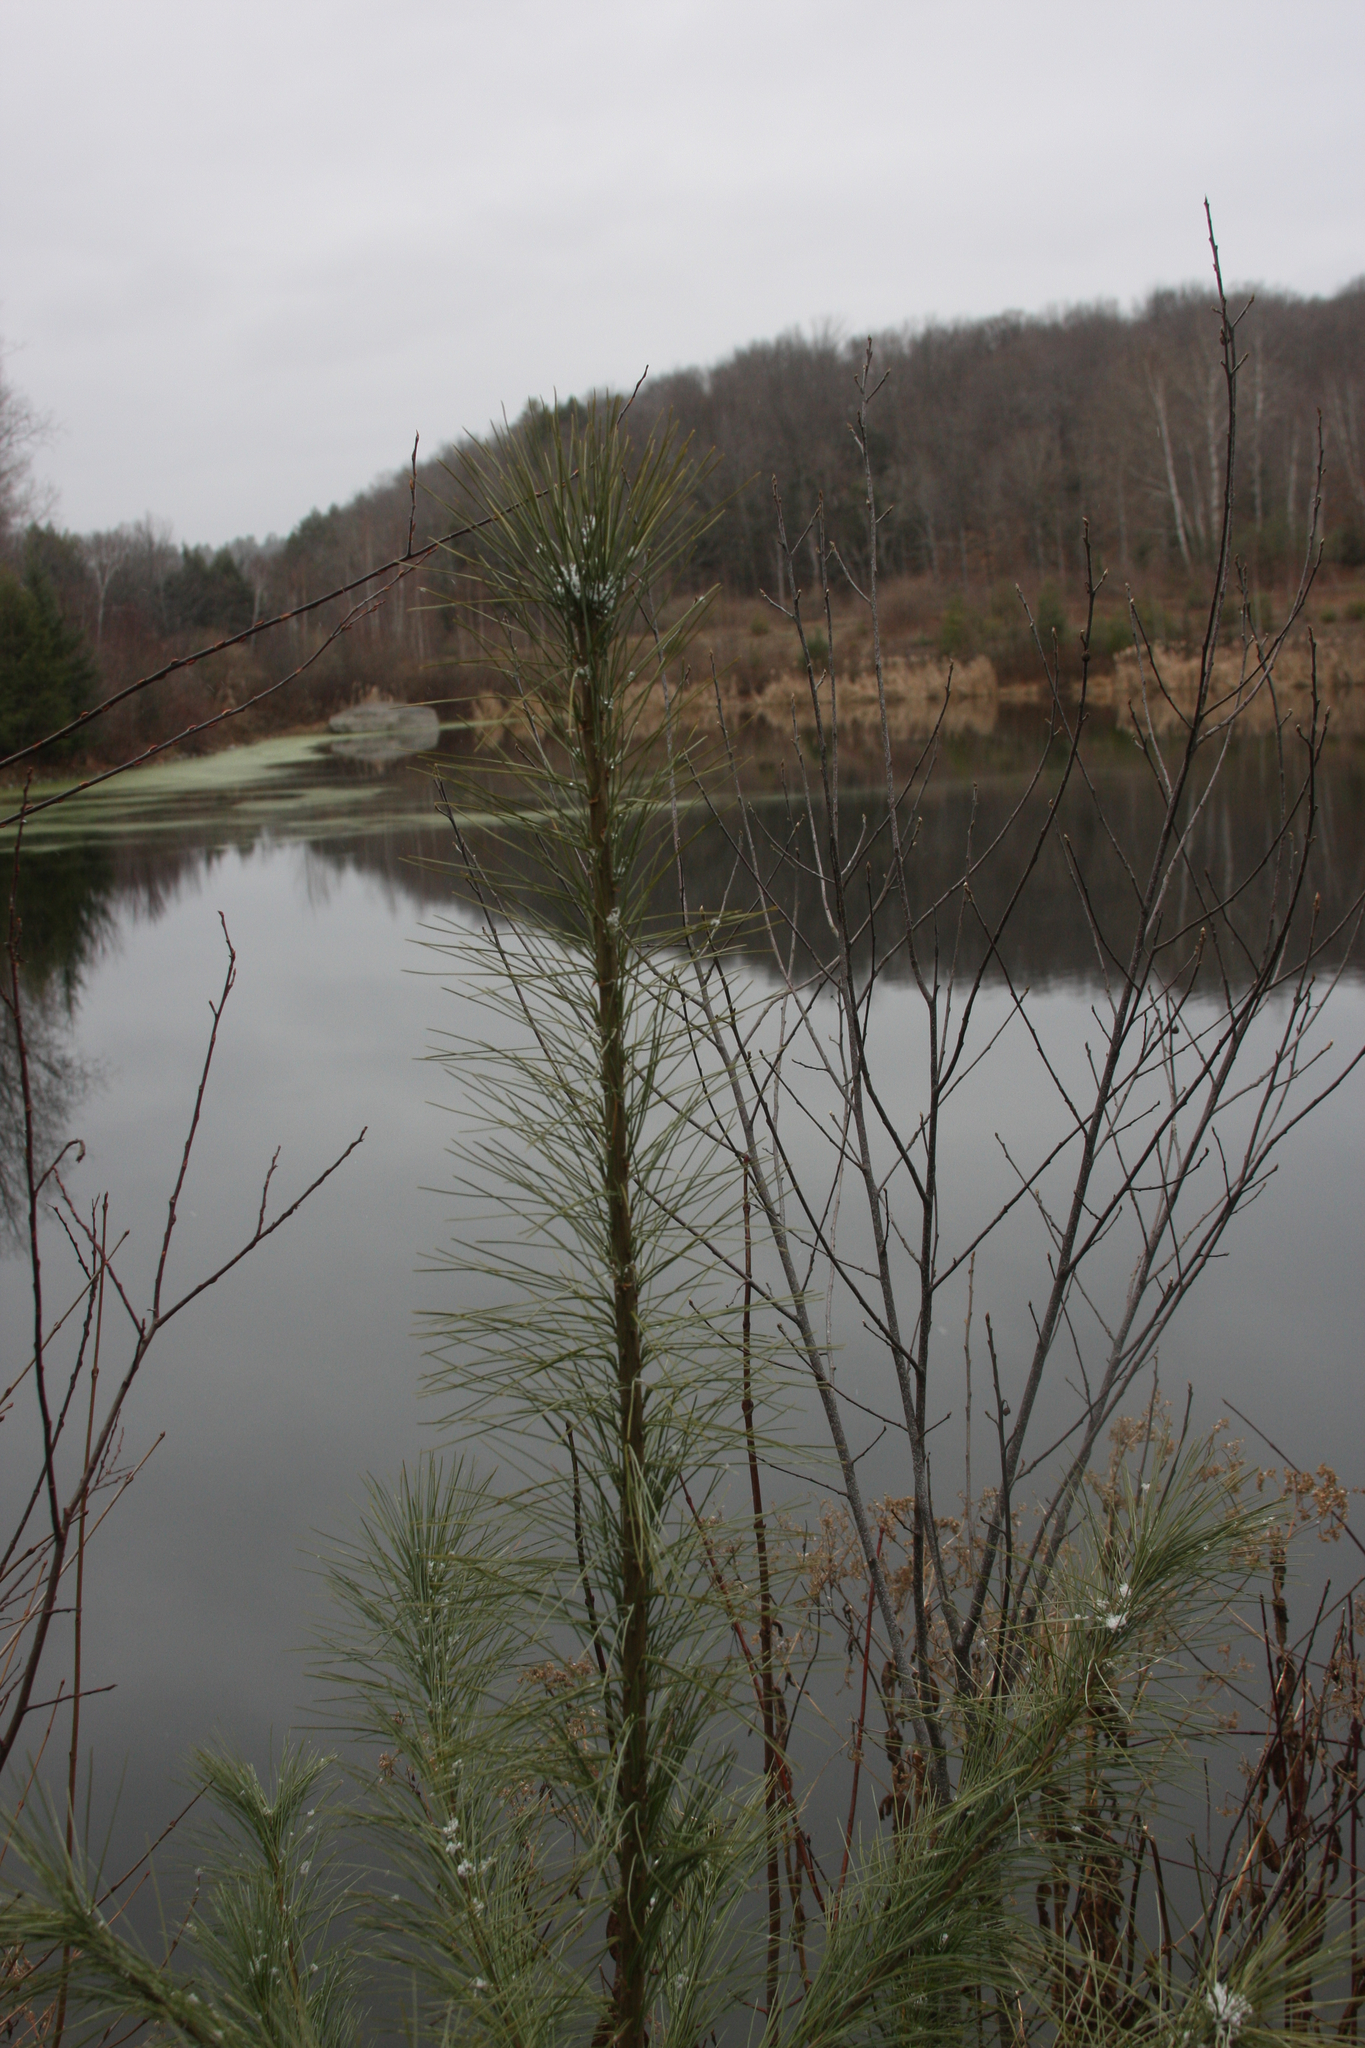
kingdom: Plantae
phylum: Tracheophyta
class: Pinopsida
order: Pinales
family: Pinaceae
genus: Pinus
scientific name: Pinus strobus
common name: Weymouth pine
